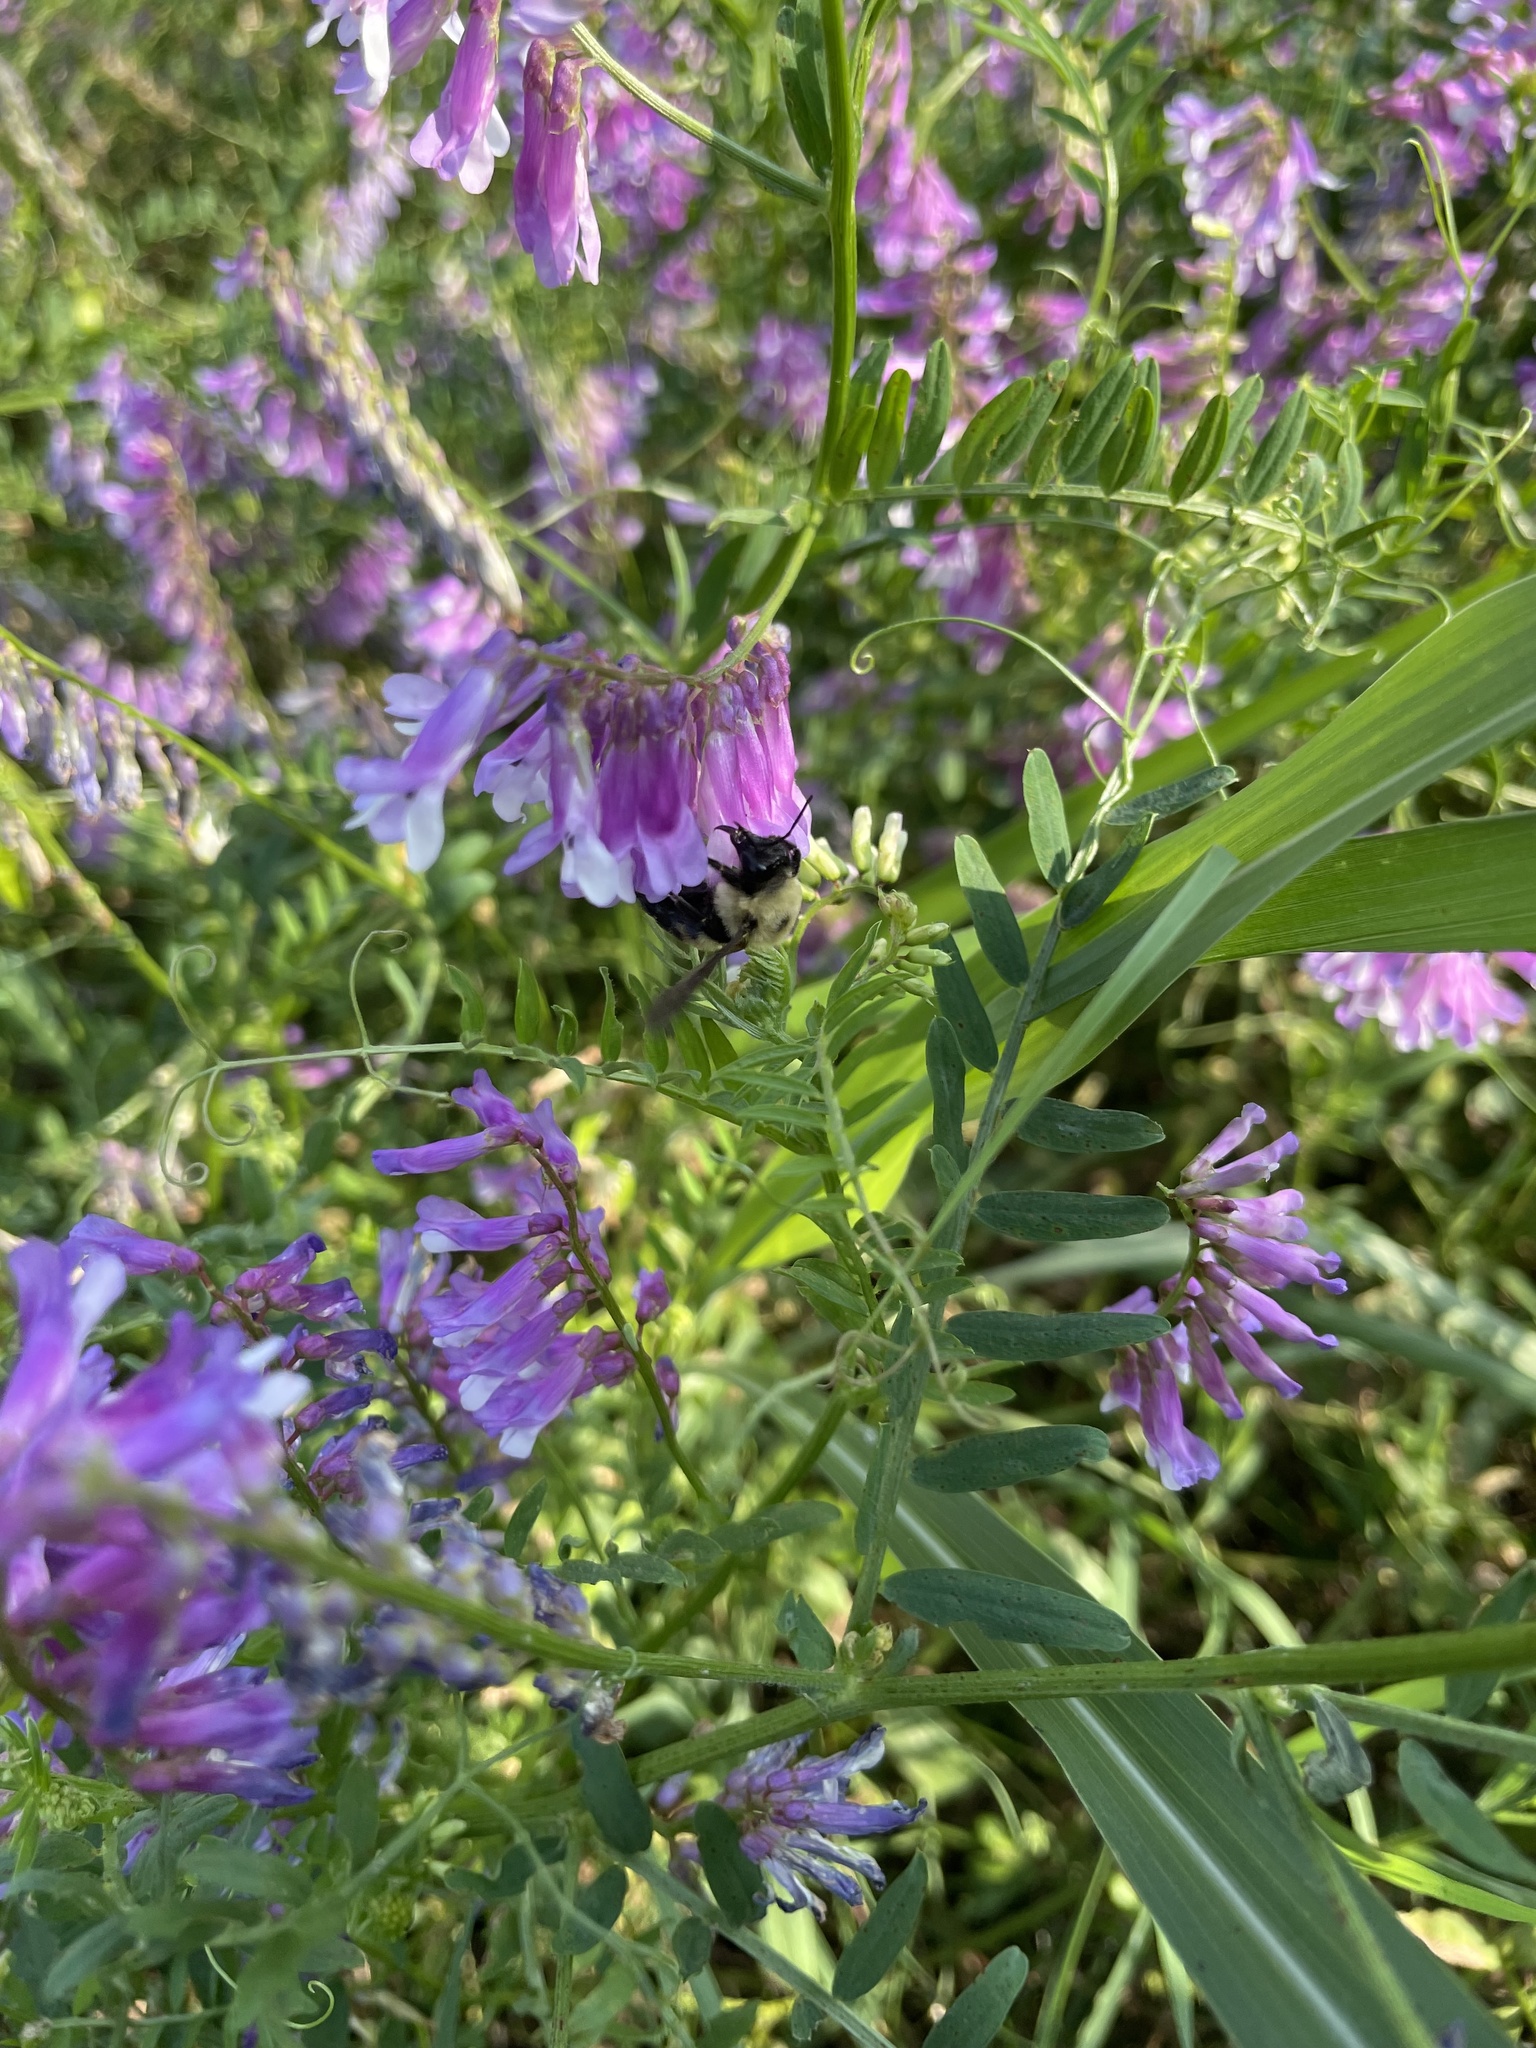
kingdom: Animalia
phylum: Arthropoda
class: Insecta
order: Hymenoptera
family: Apidae
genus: Bombus
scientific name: Bombus griseocollis
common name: Brown-belted bumble bee
